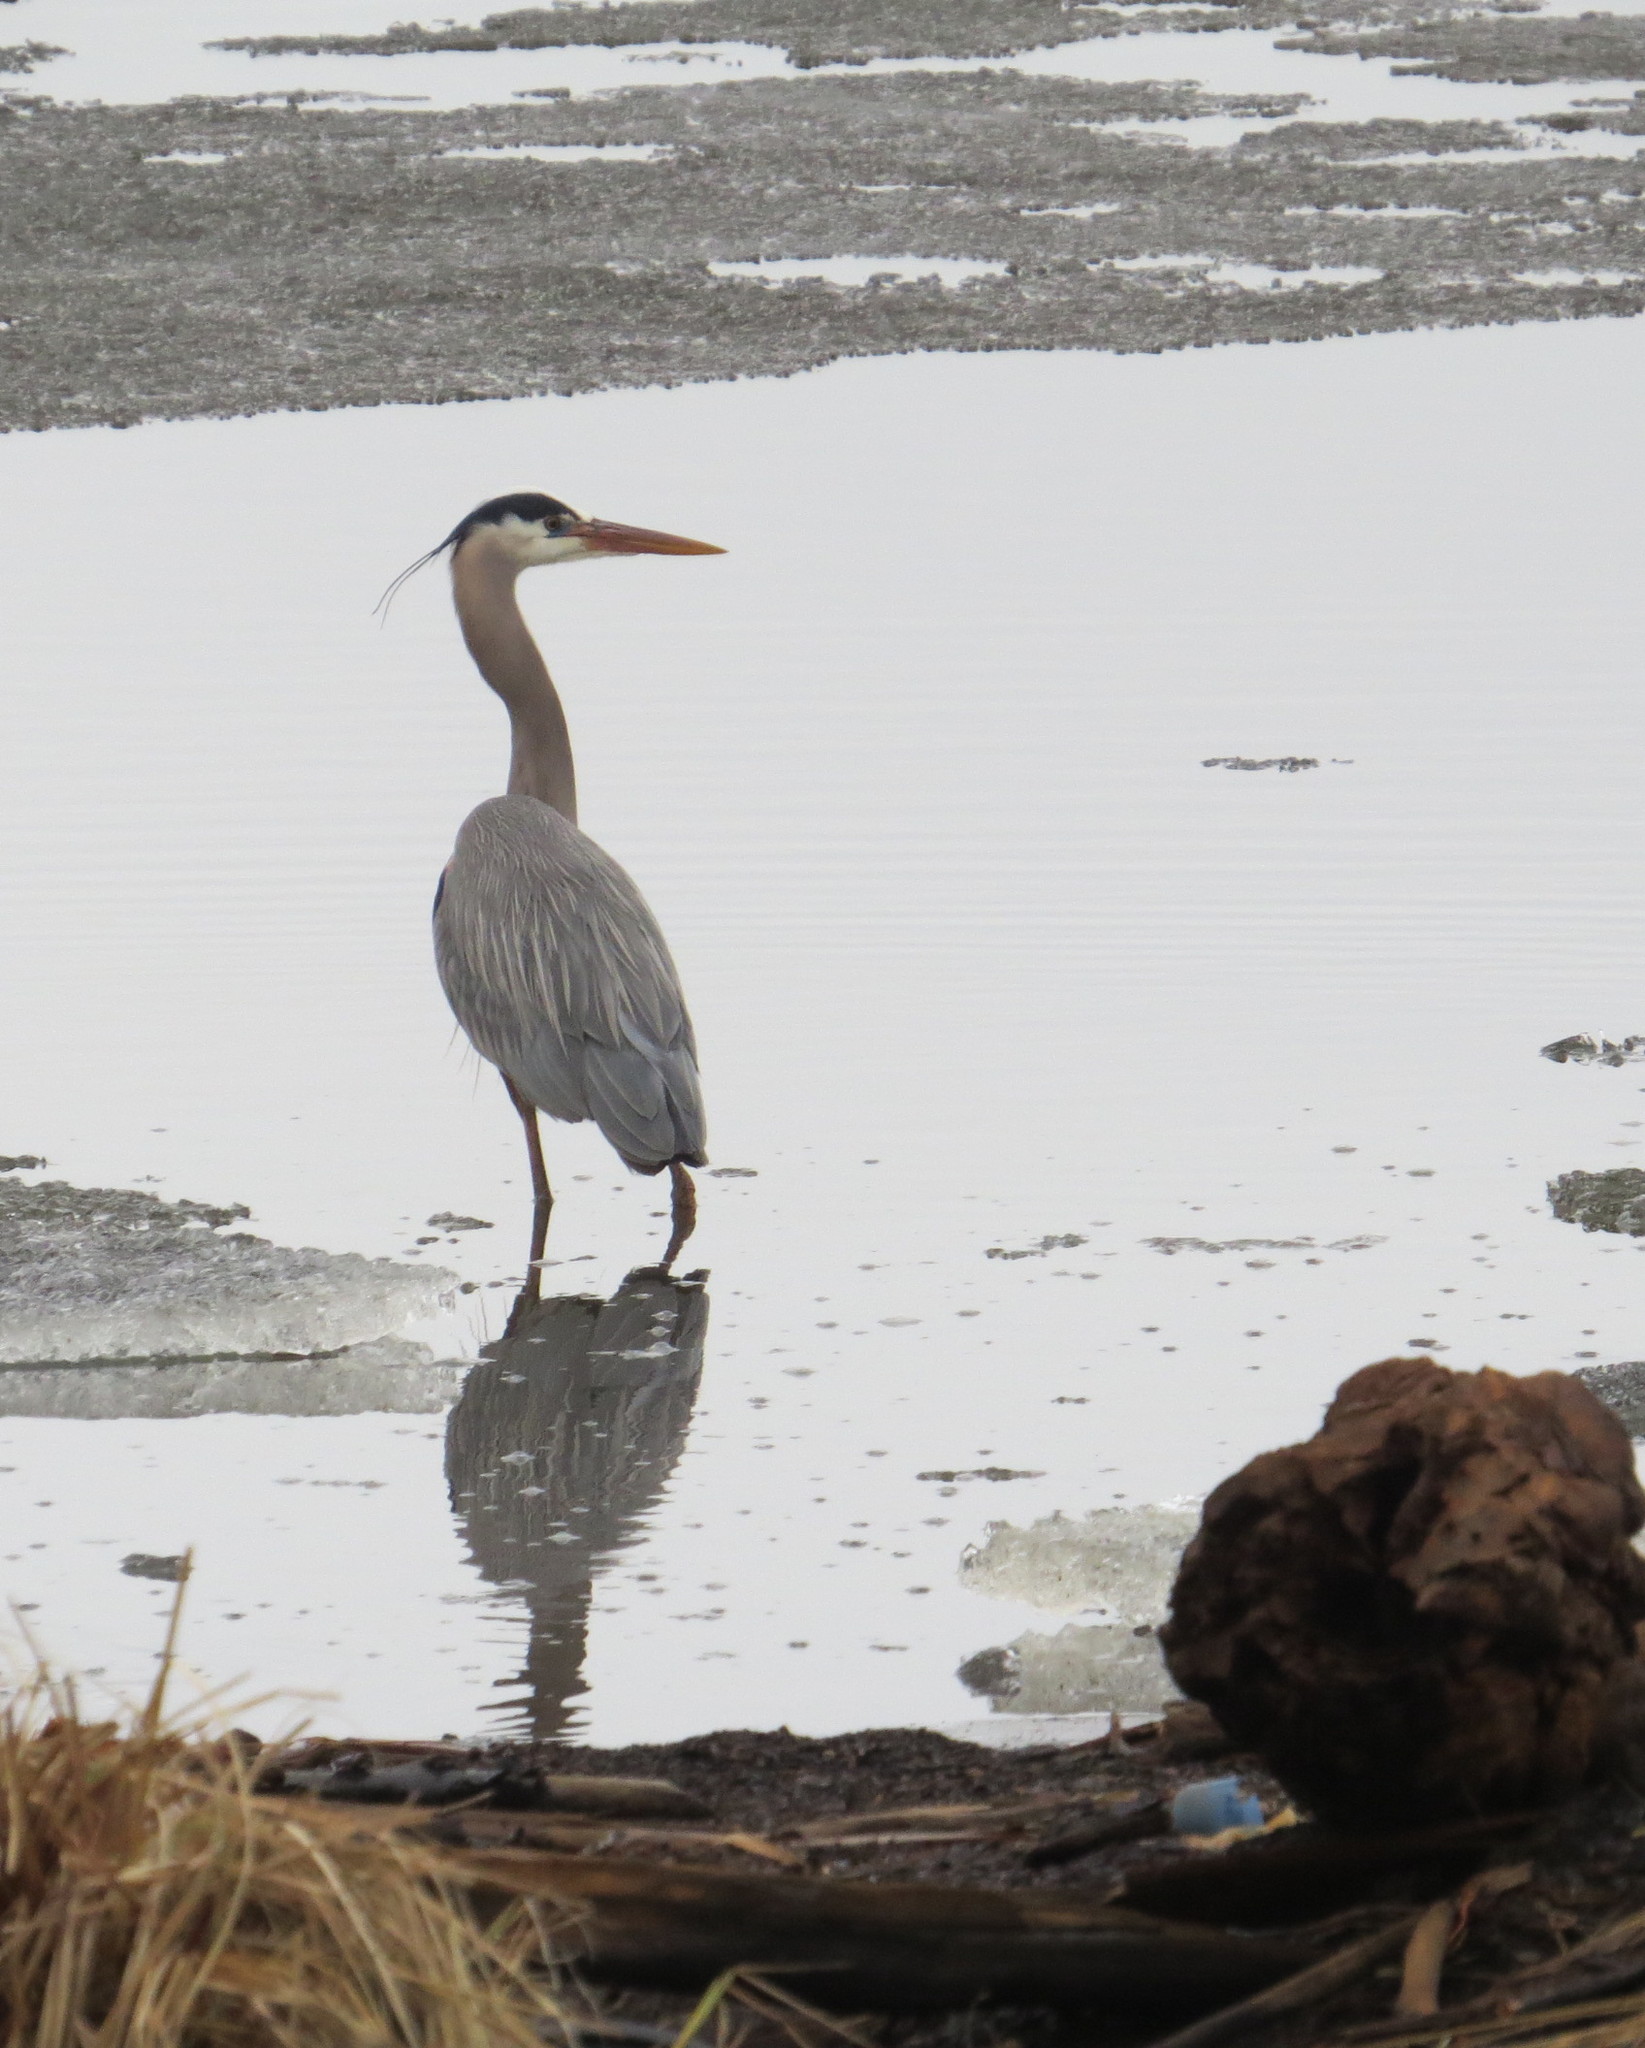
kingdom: Animalia
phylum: Chordata
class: Aves
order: Pelecaniformes
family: Ardeidae
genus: Ardea
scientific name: Ardea herodias
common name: Great blue heron
